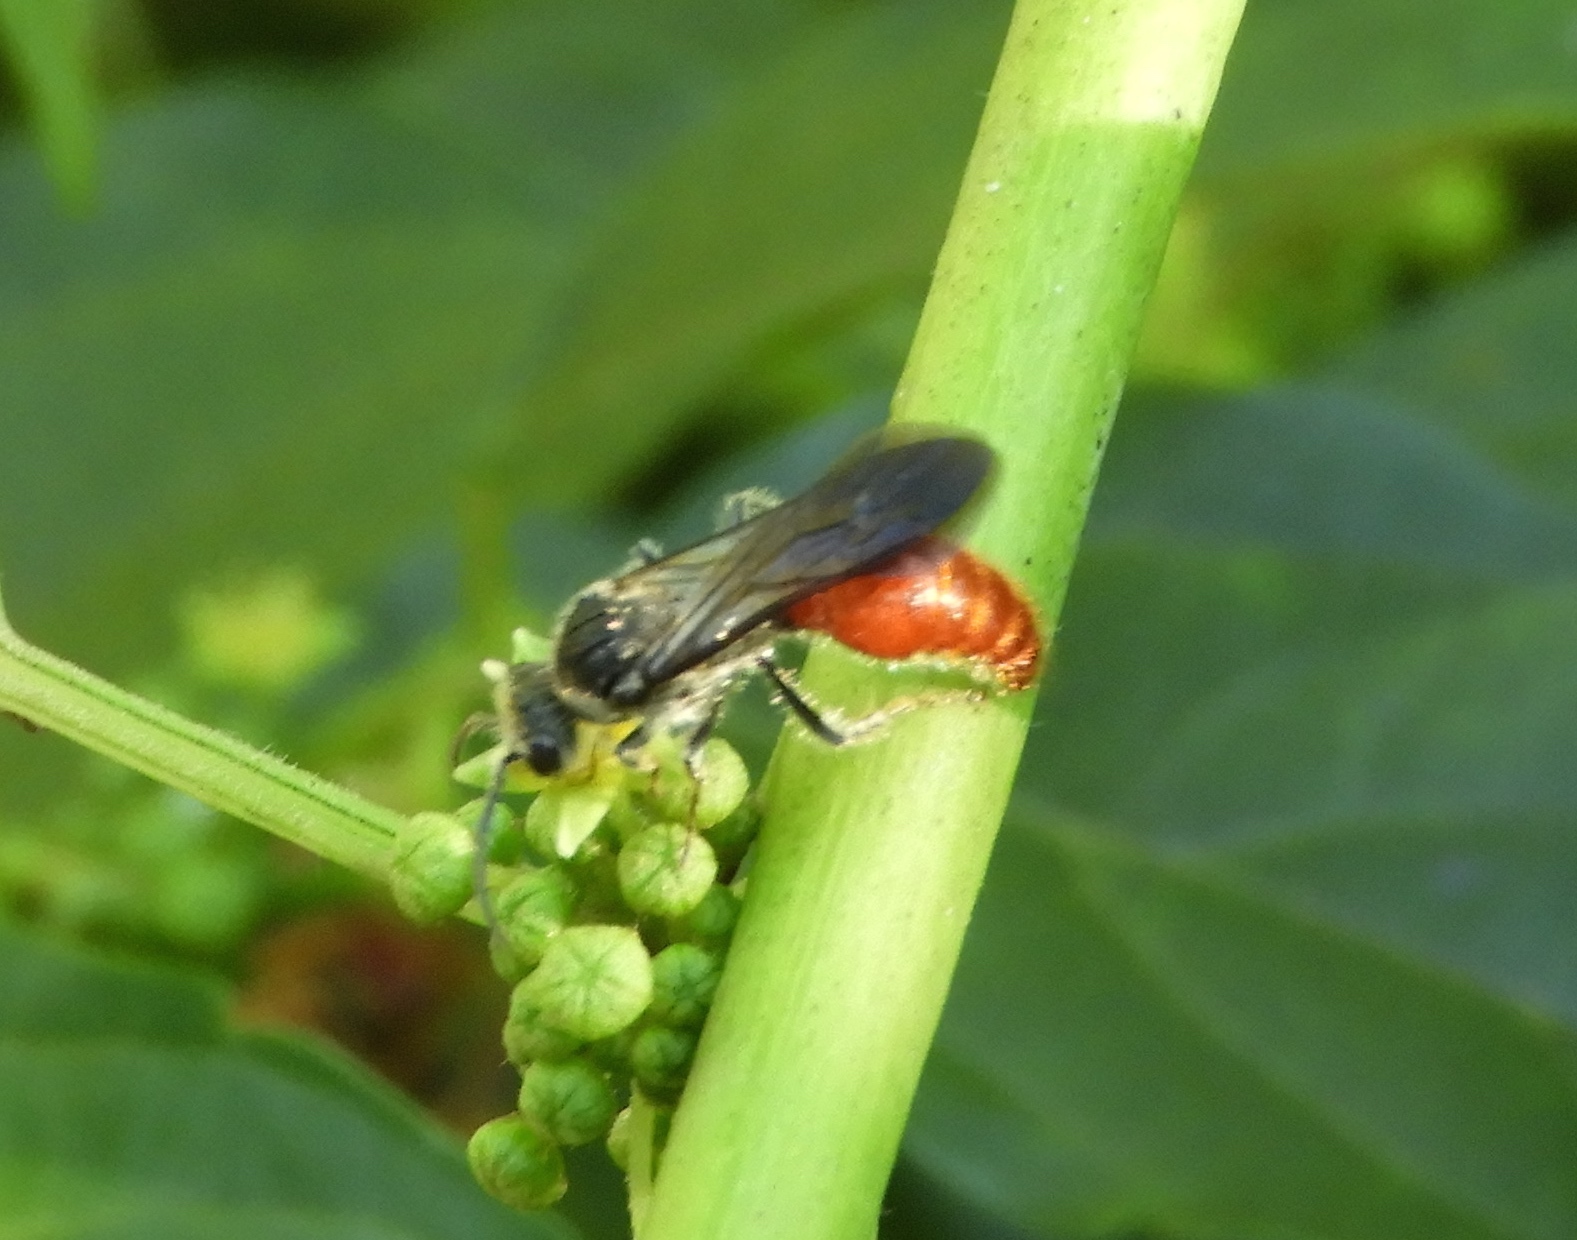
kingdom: Animalia
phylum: Arthropoda
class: Insecta
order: Hymenoptera
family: Mutillidae
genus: Timulla
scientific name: Timulla
